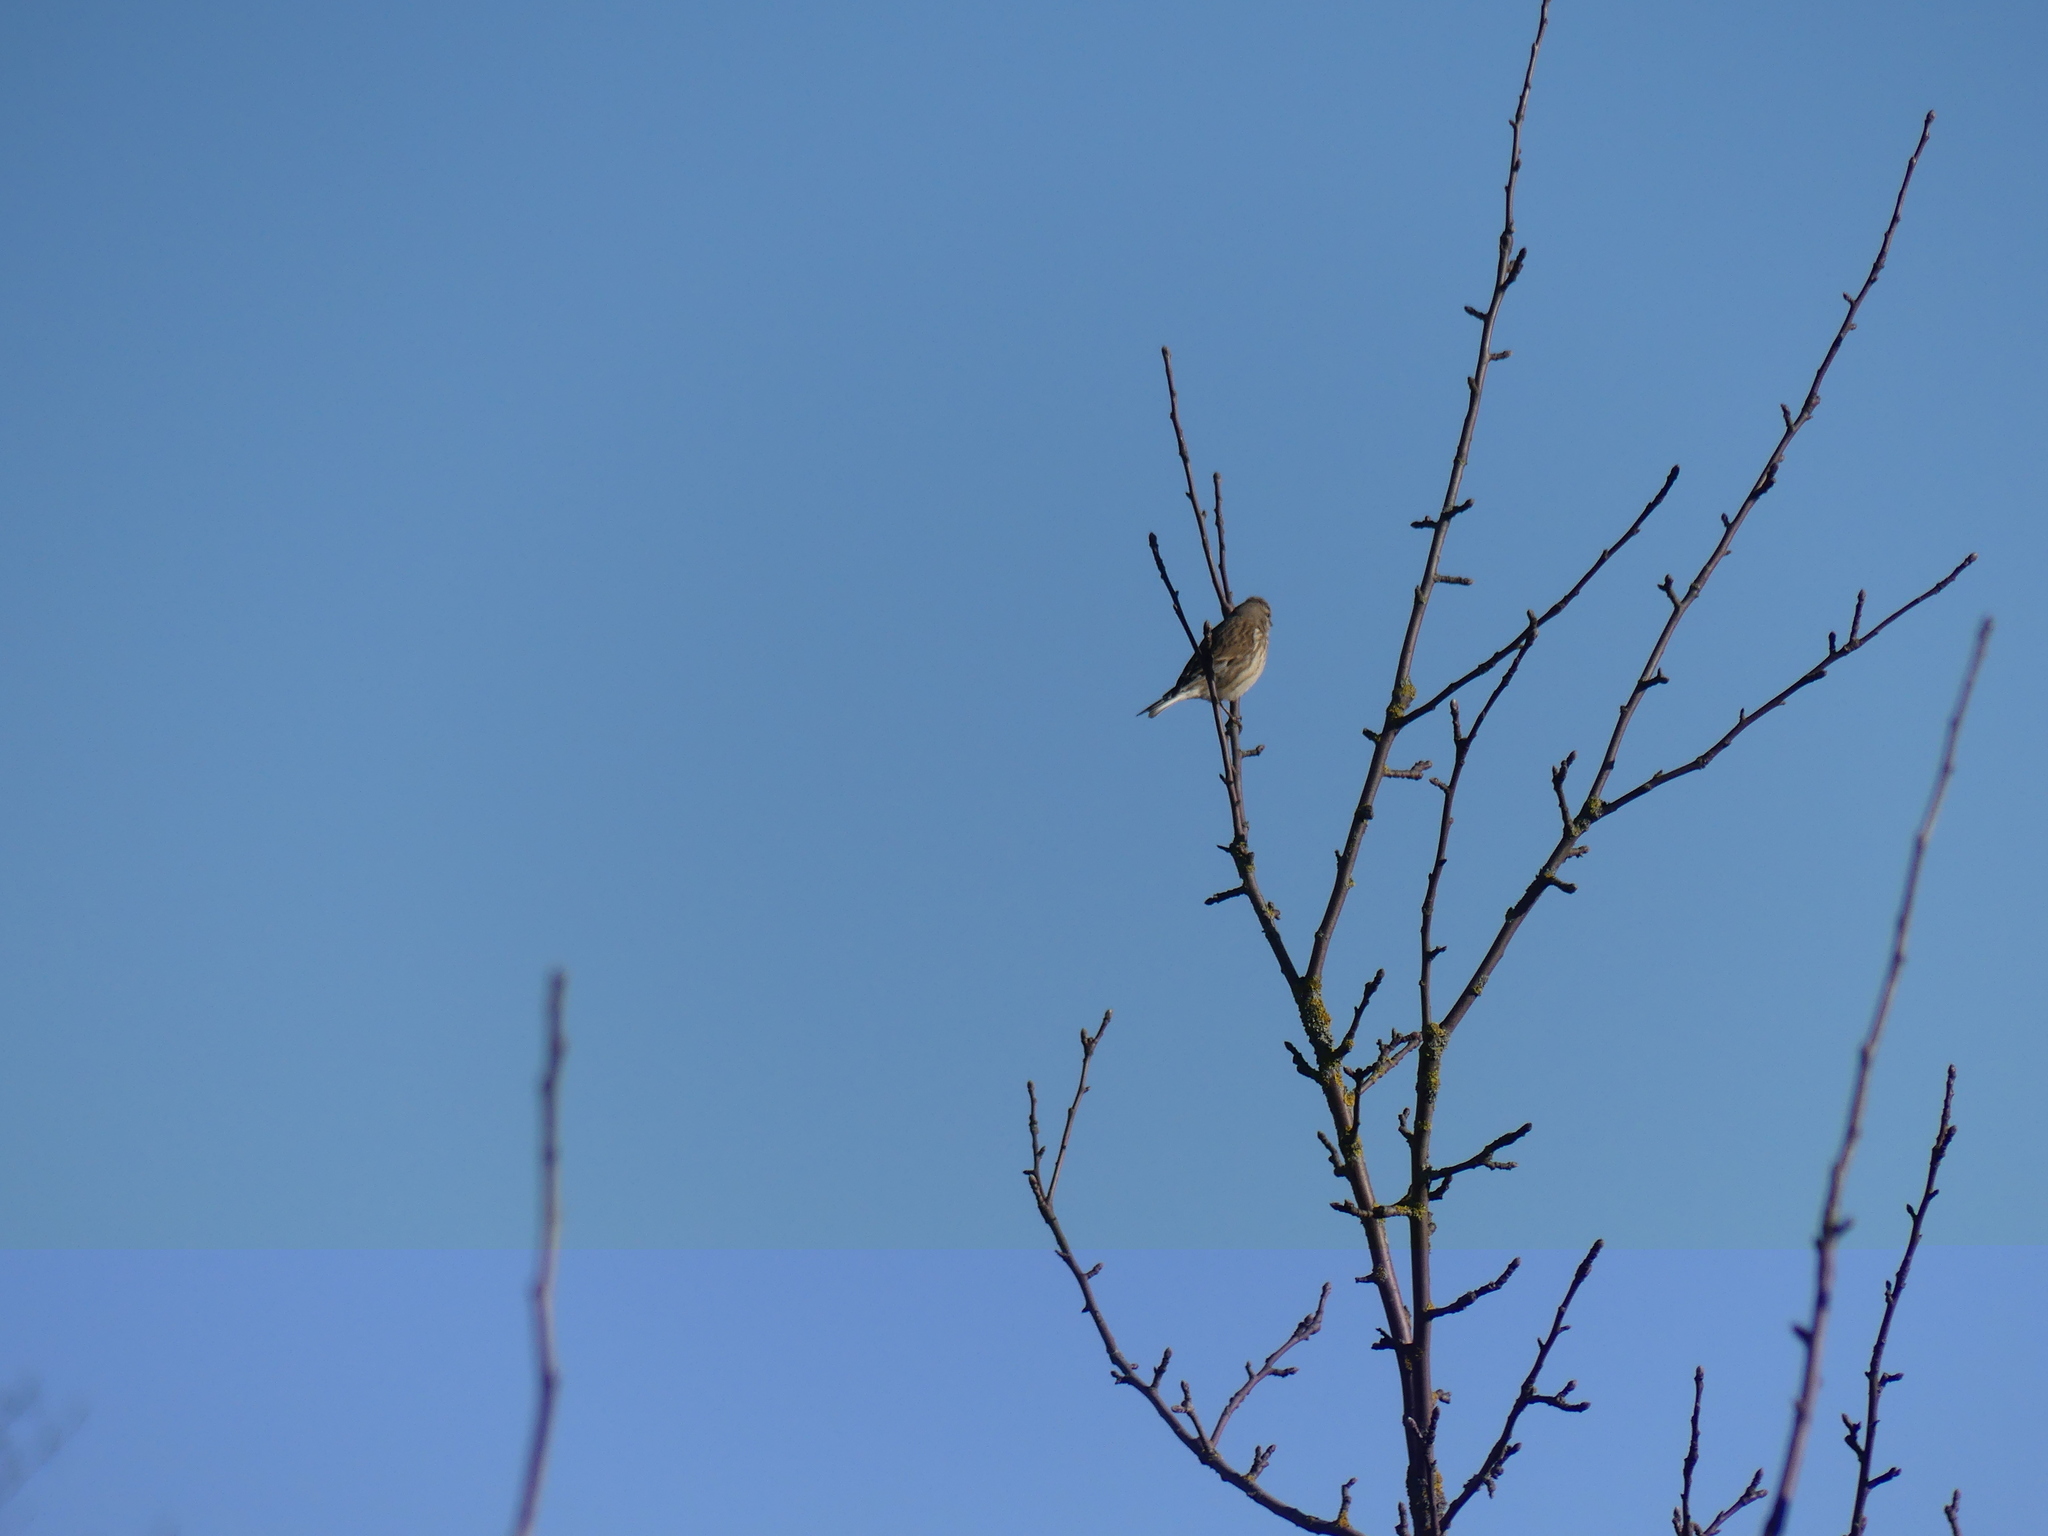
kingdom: Animalia
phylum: Chordata
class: Aves
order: Passeriformes
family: Fringillidae
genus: Linaria
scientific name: Linaria cannabina
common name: Common linnet
